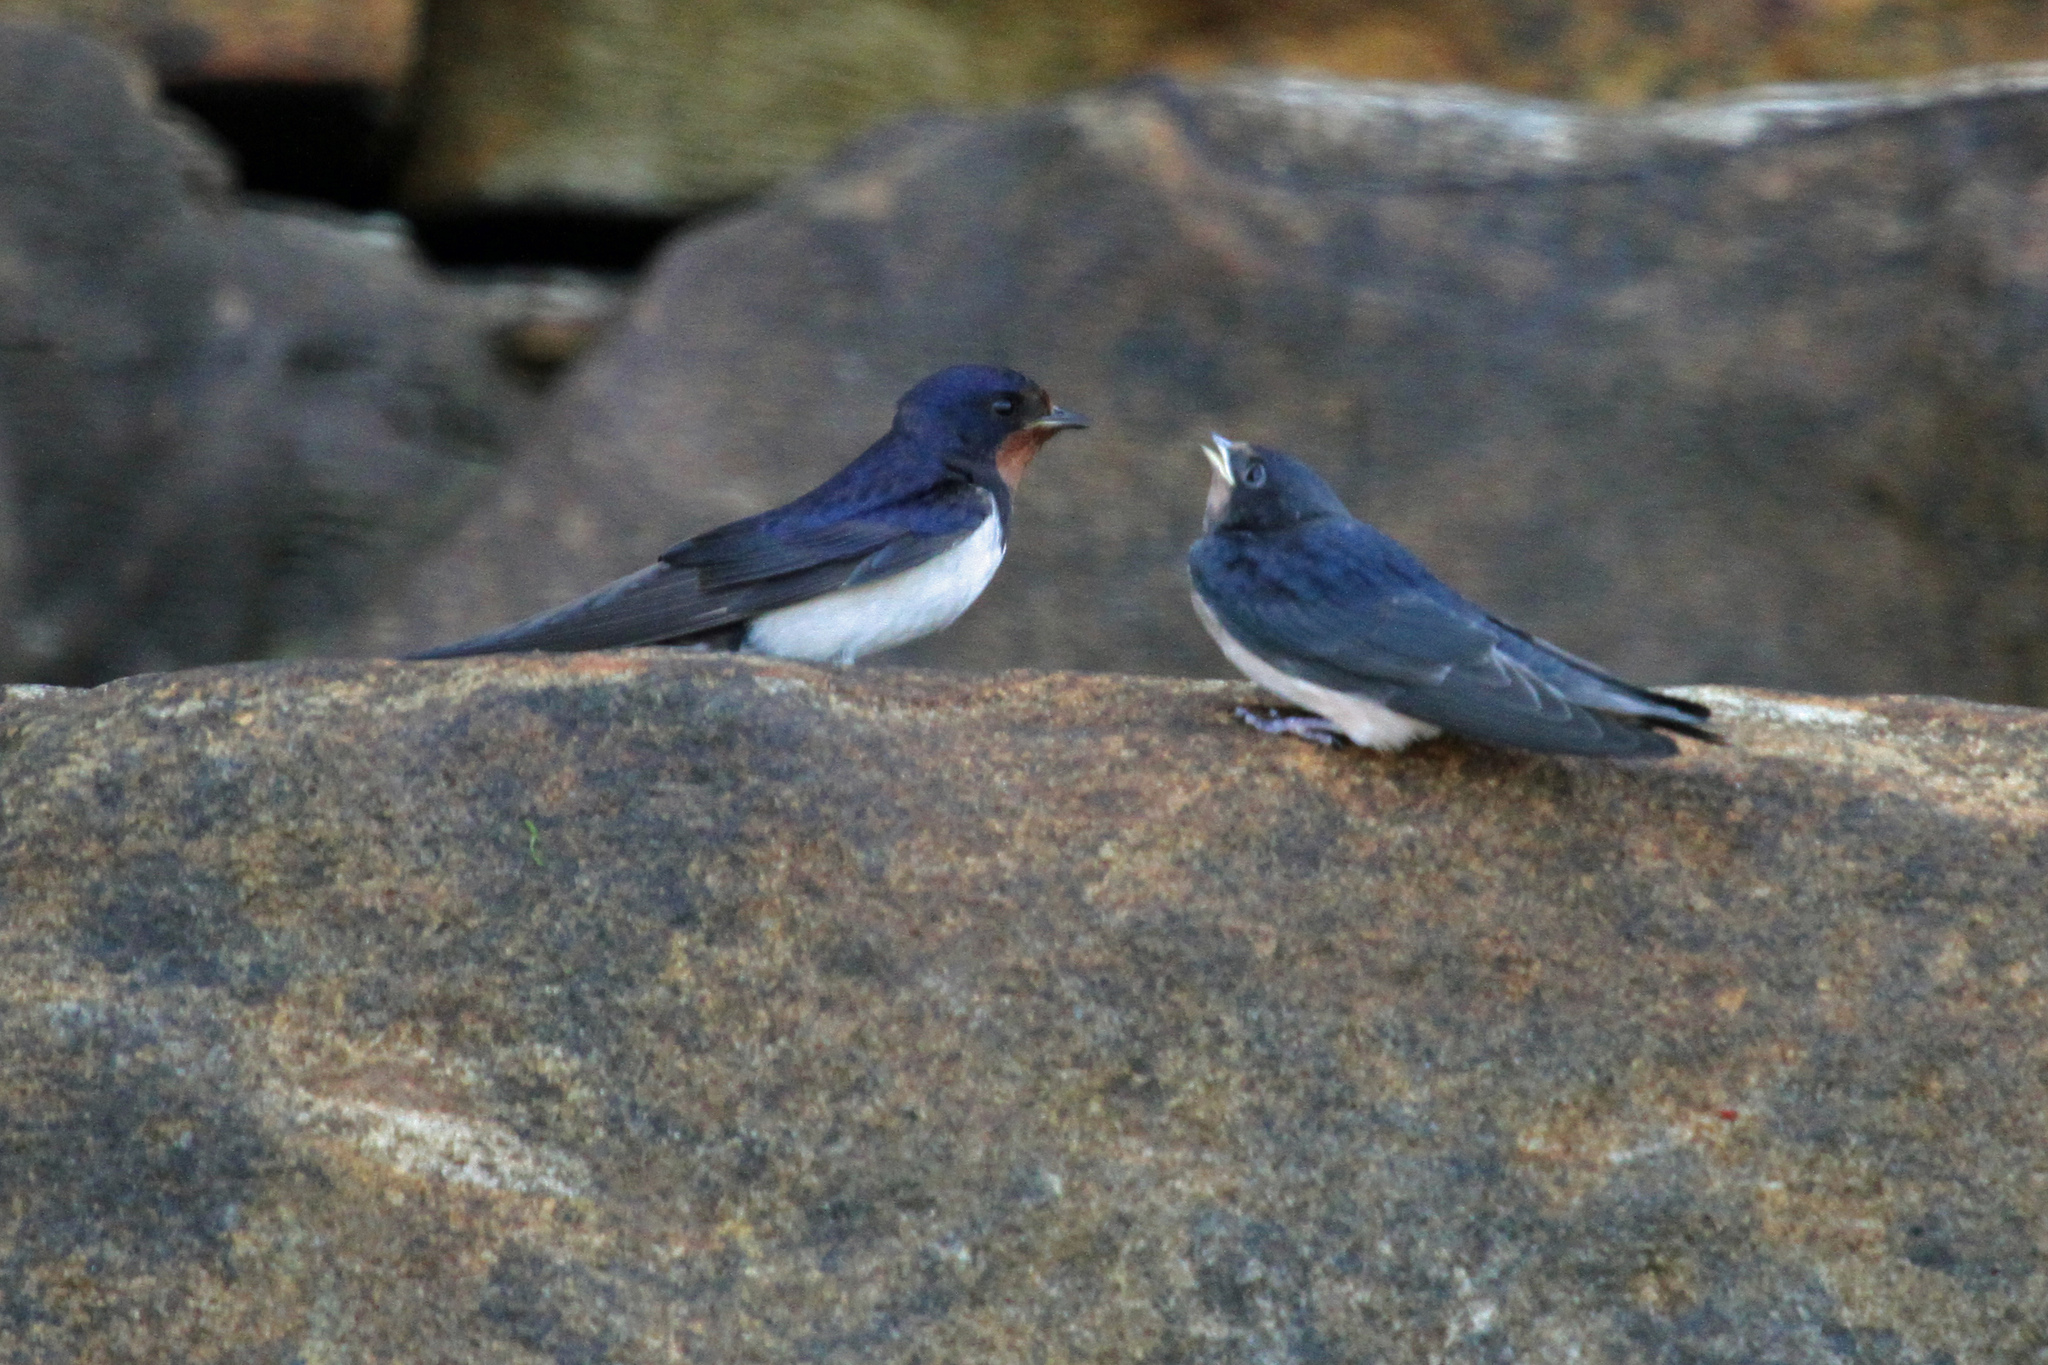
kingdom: Animalia
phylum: Chordata
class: Aves
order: Passeriformes
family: Hirundinidae
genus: Hirundo
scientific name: Hirundo rustica
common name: Barn swallow
